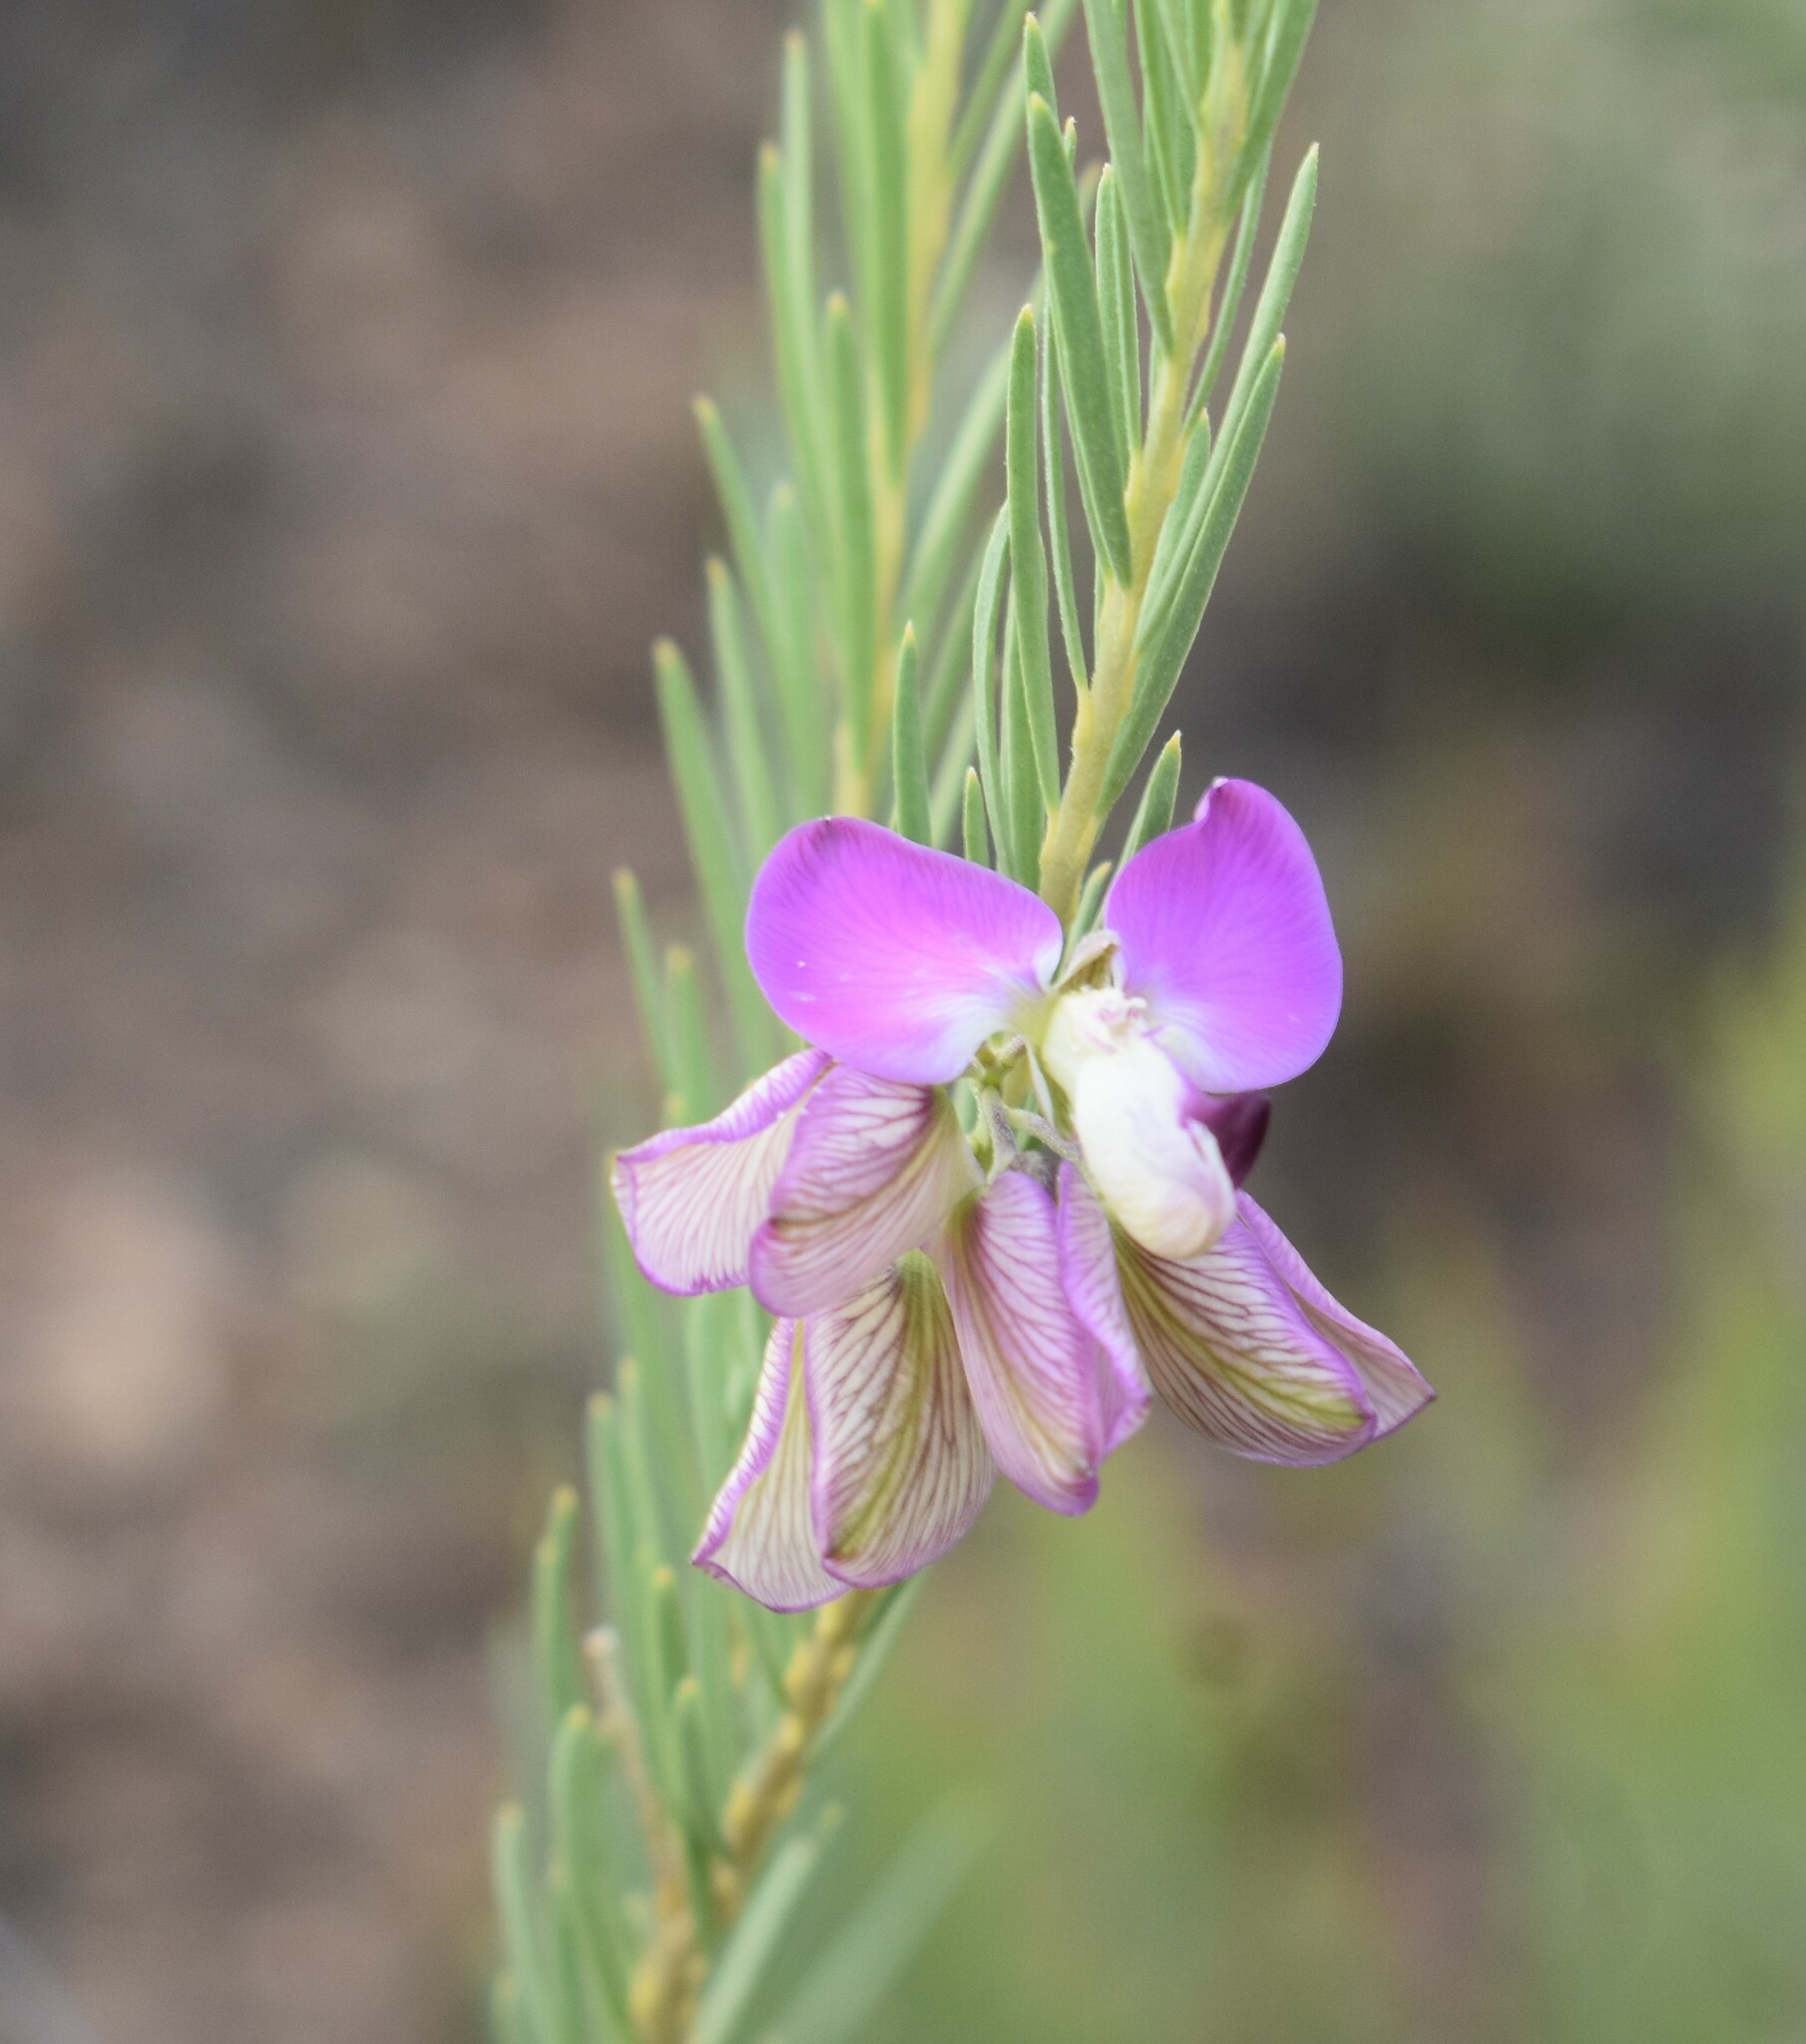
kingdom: Plantae
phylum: Tracheophyta
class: Magnoliopsida
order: Fabales
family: Polygalaceae
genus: Polygala
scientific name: Polygala myrtifolia
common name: Myrtle-leaf milkwort
